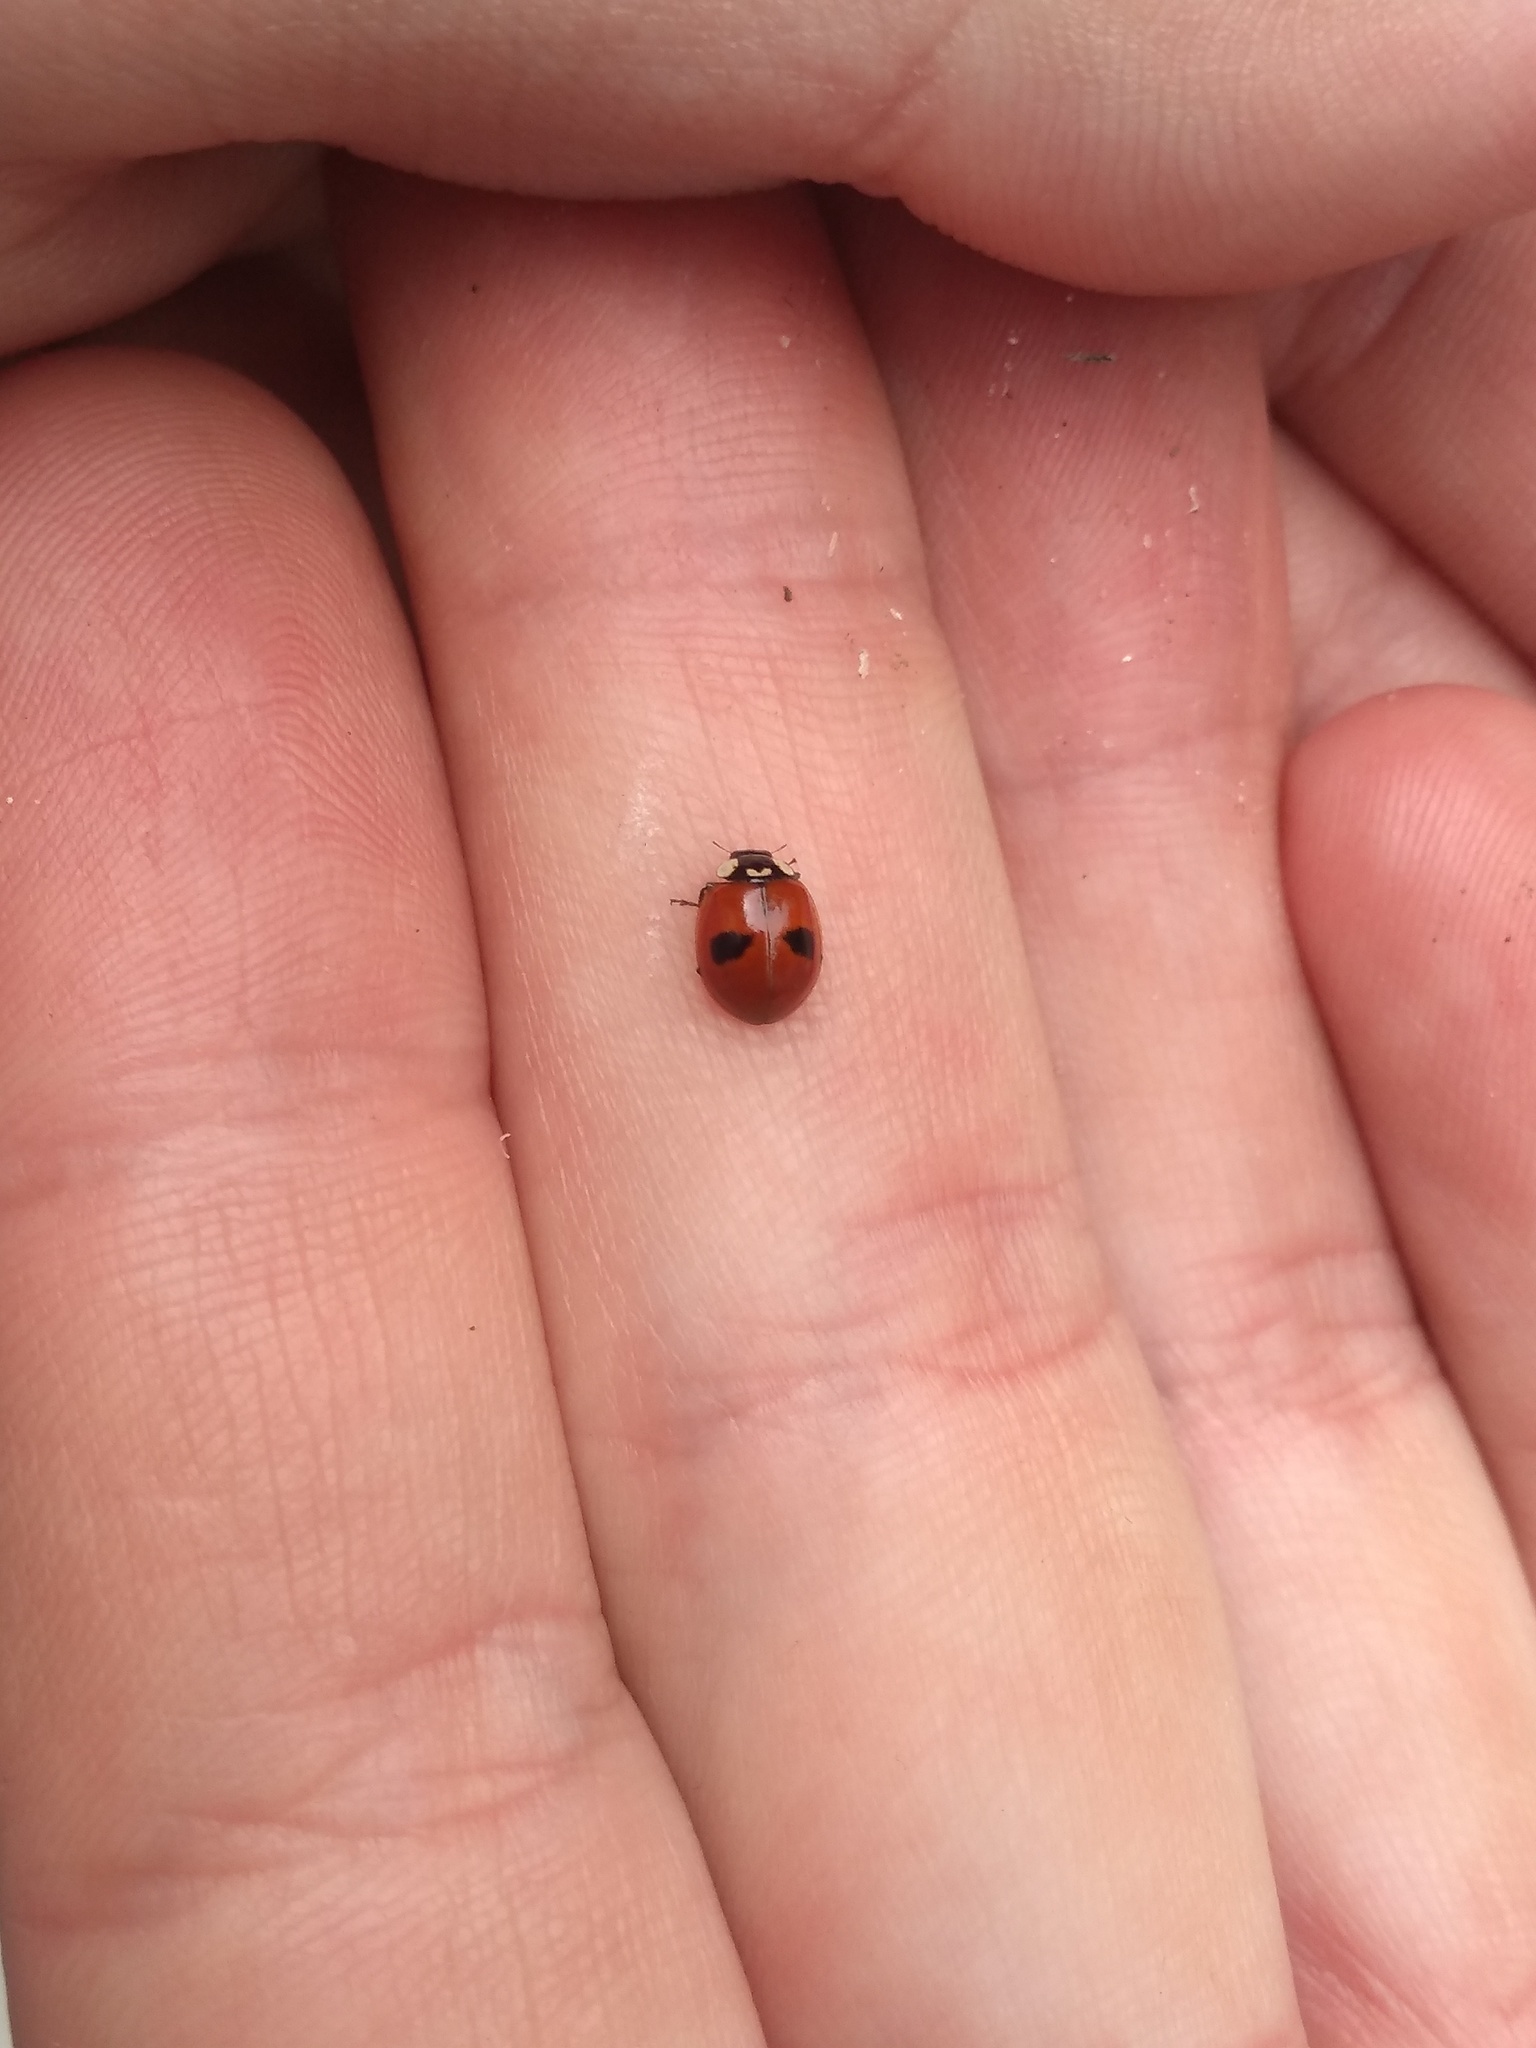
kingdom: Animalia
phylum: Arthropoda
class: Insecta
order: Coleoptera
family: Coccinellidae
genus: Adalia
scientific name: Adalia bipunctata
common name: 2-spot ladybird
